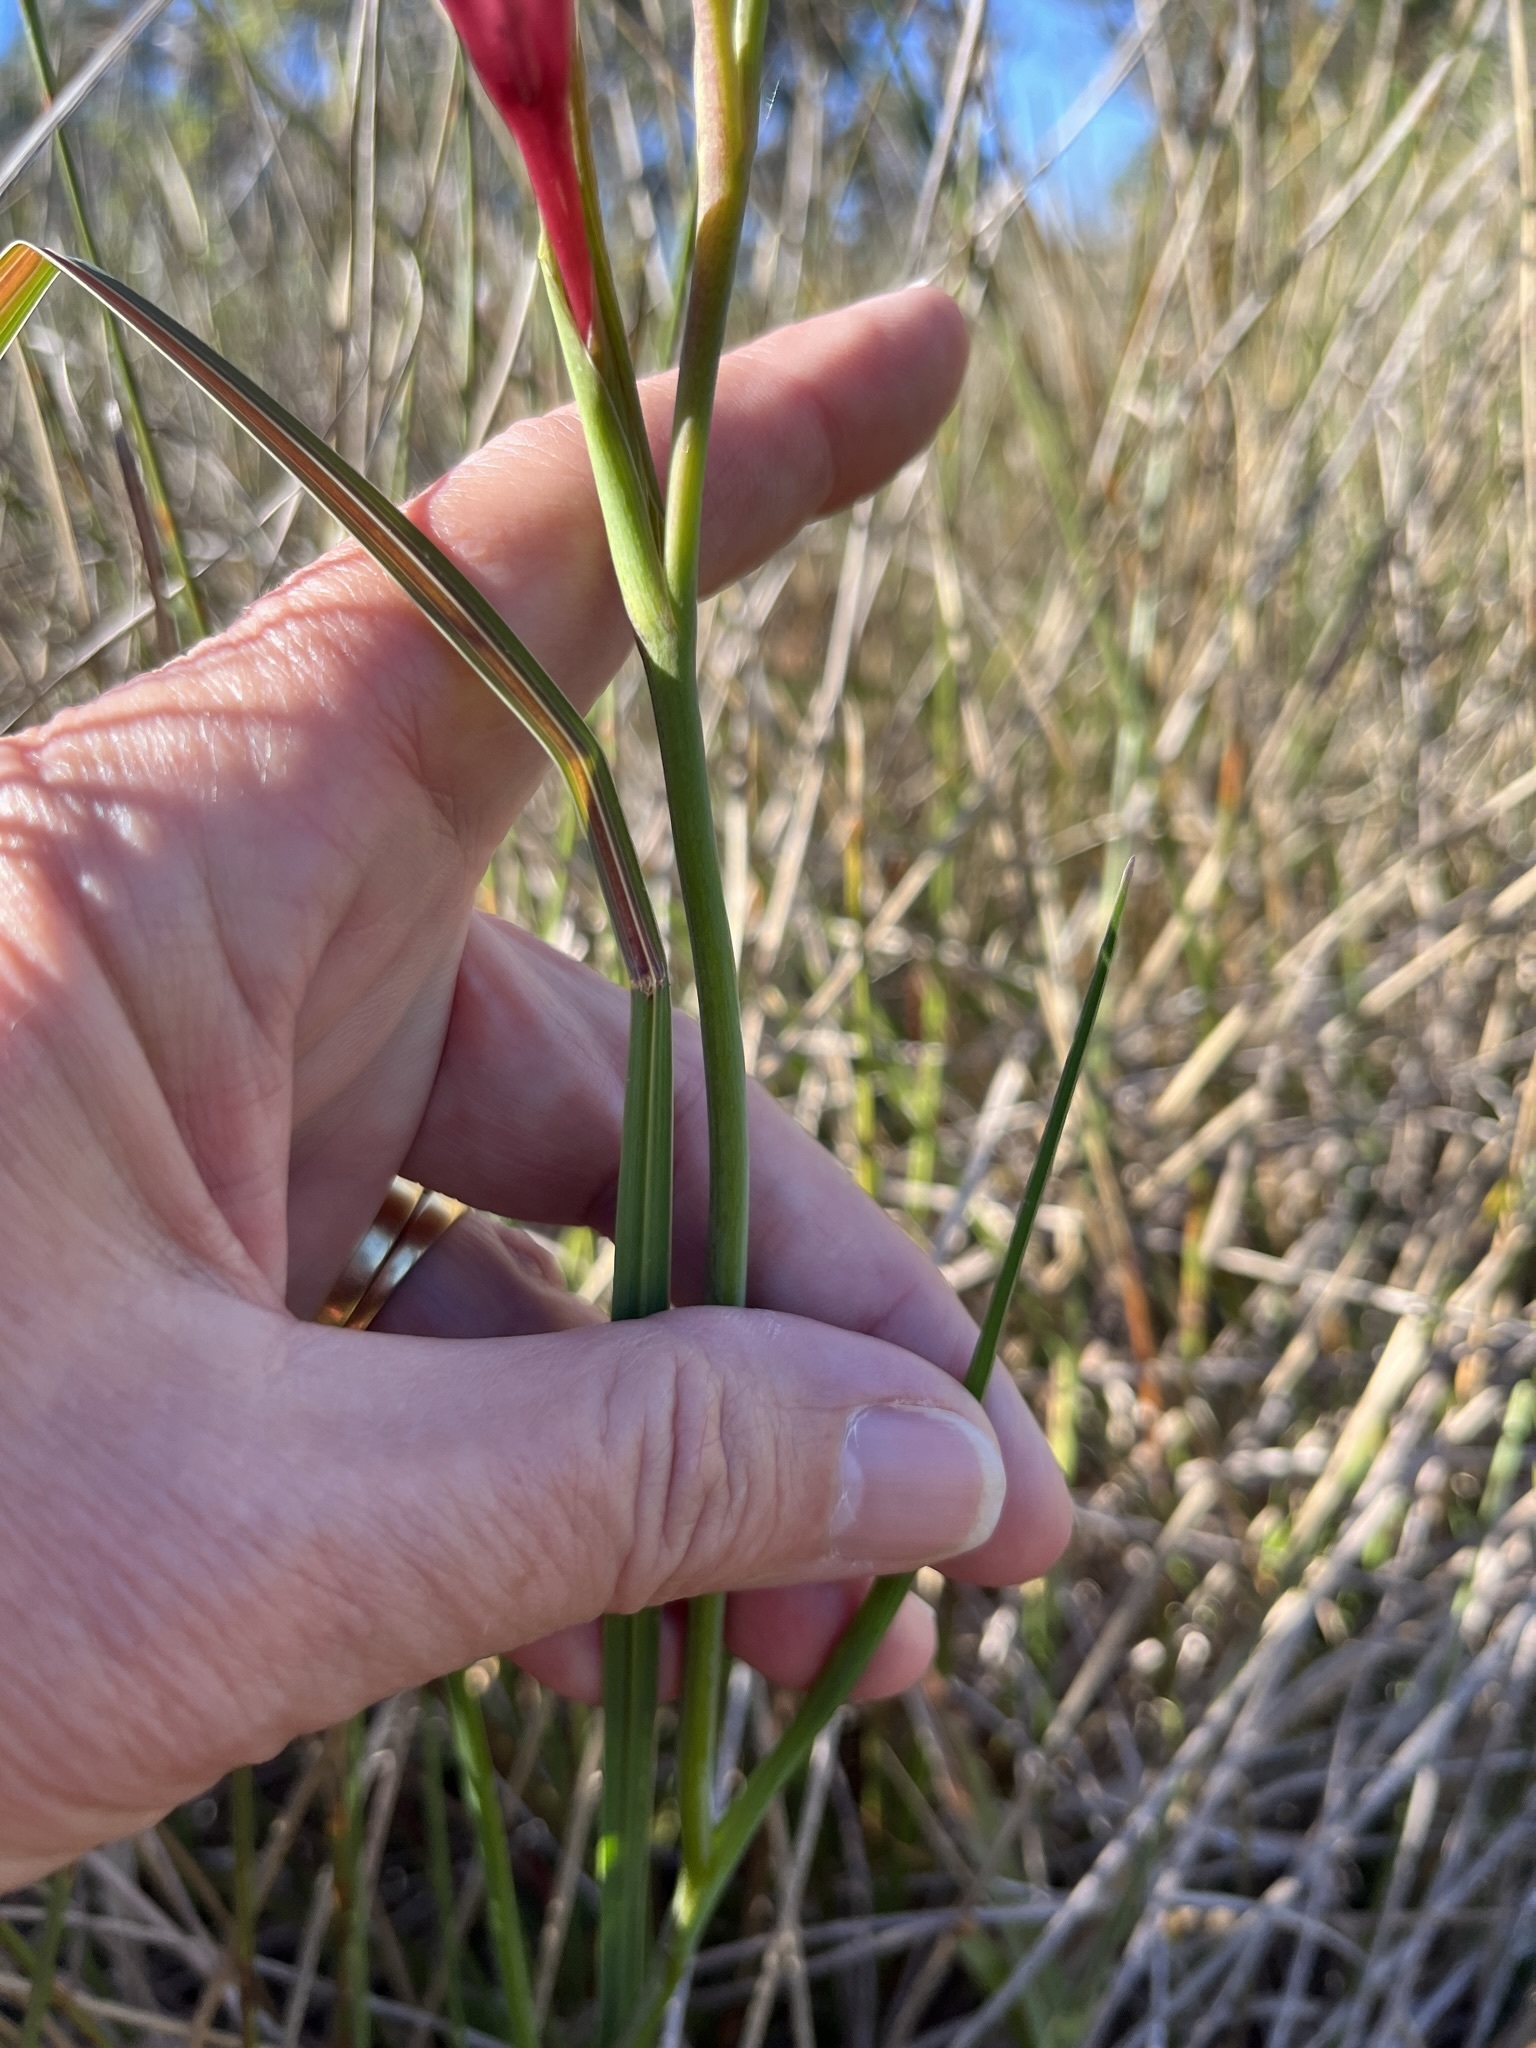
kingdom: Plantae
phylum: Tracheophyta
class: Liliopsida
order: Asparagales
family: Iridaceae
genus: Gladiolus
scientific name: Gladiolus carneus
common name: Painted-lady
